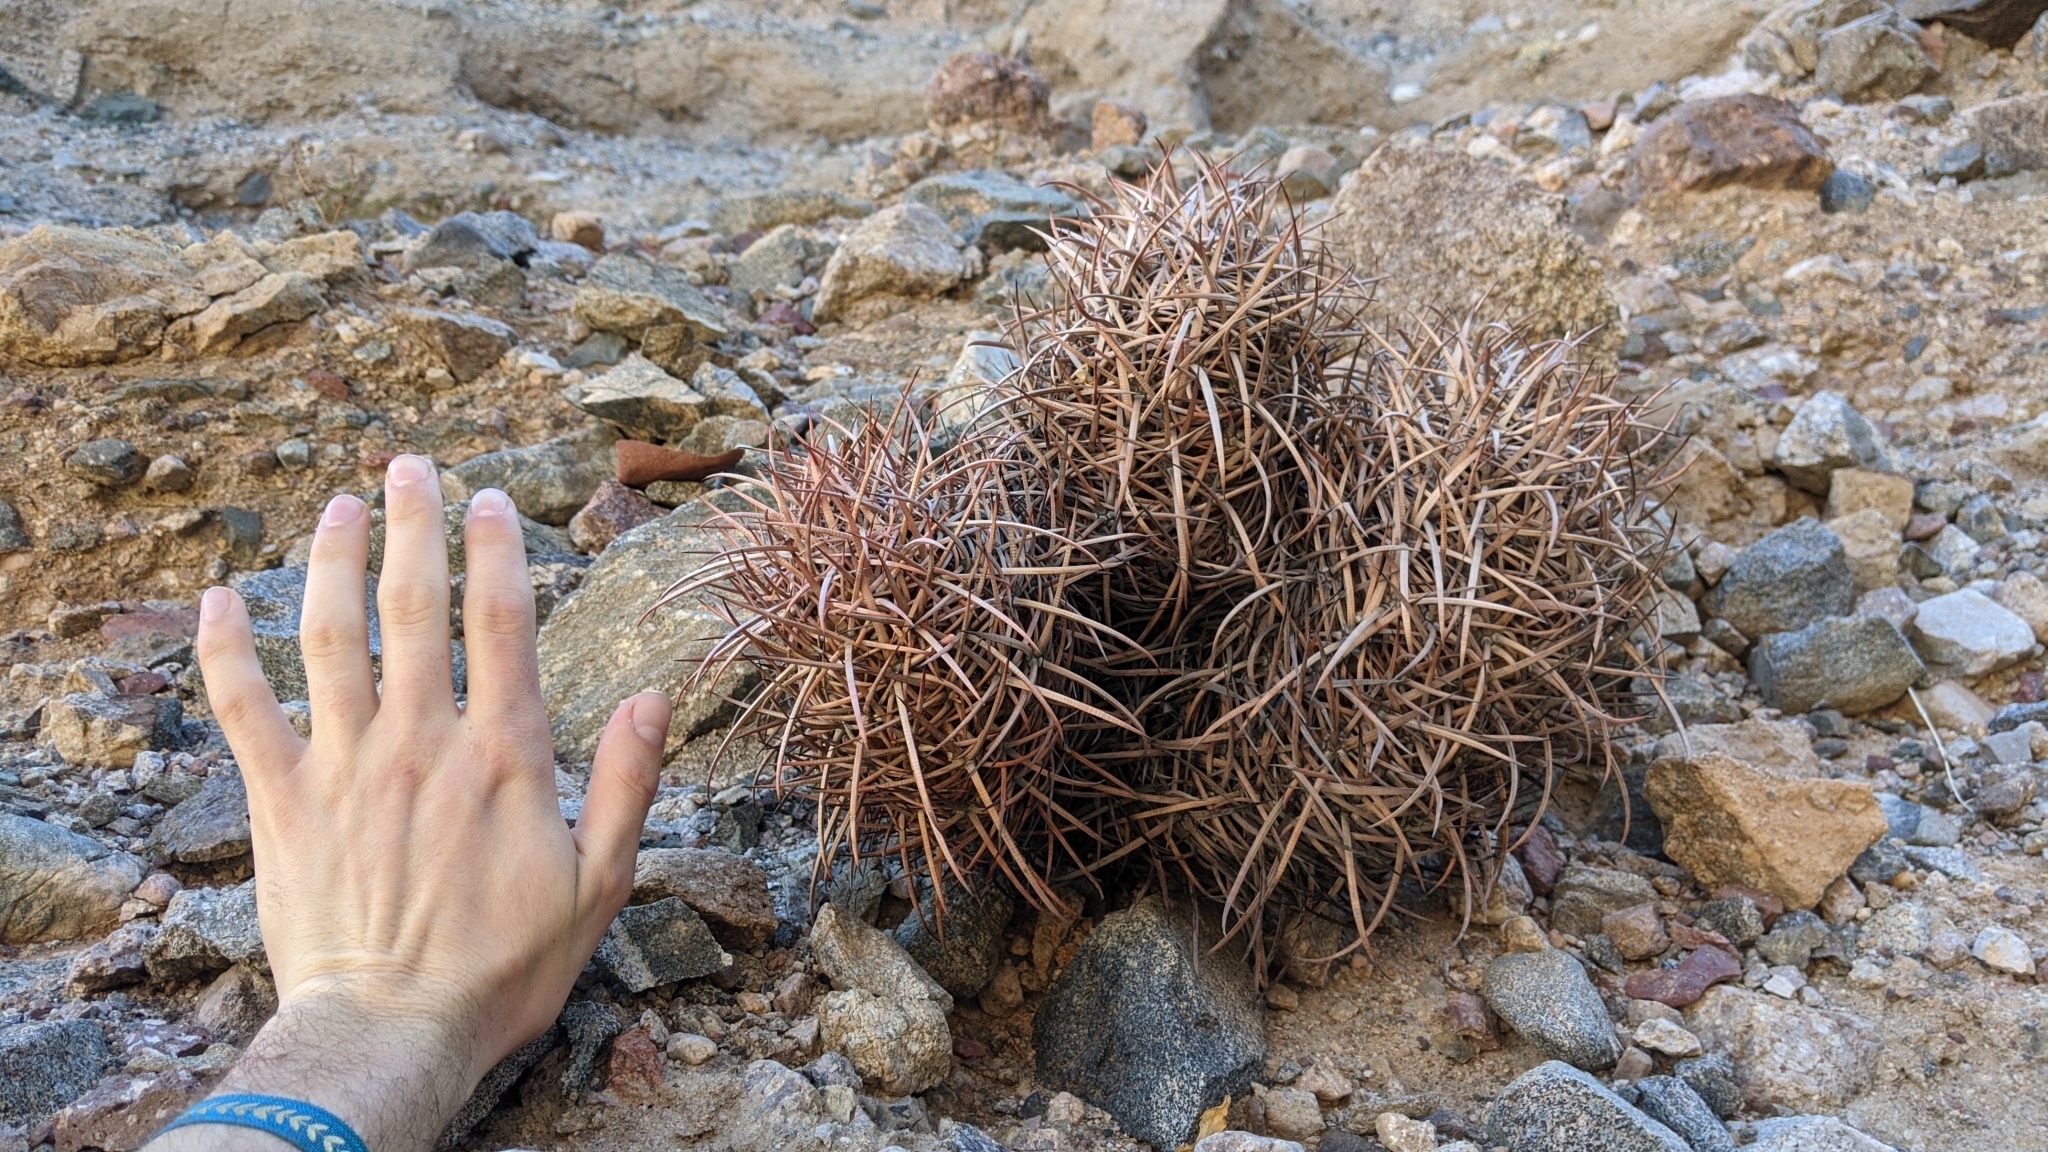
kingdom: Plantae
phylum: Tracheophyta
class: Magnoliopsida
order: Caryophyllales
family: Cactaceae
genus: Echinocactus
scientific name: Echinocactus polycephalus
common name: Cottontop cactus
